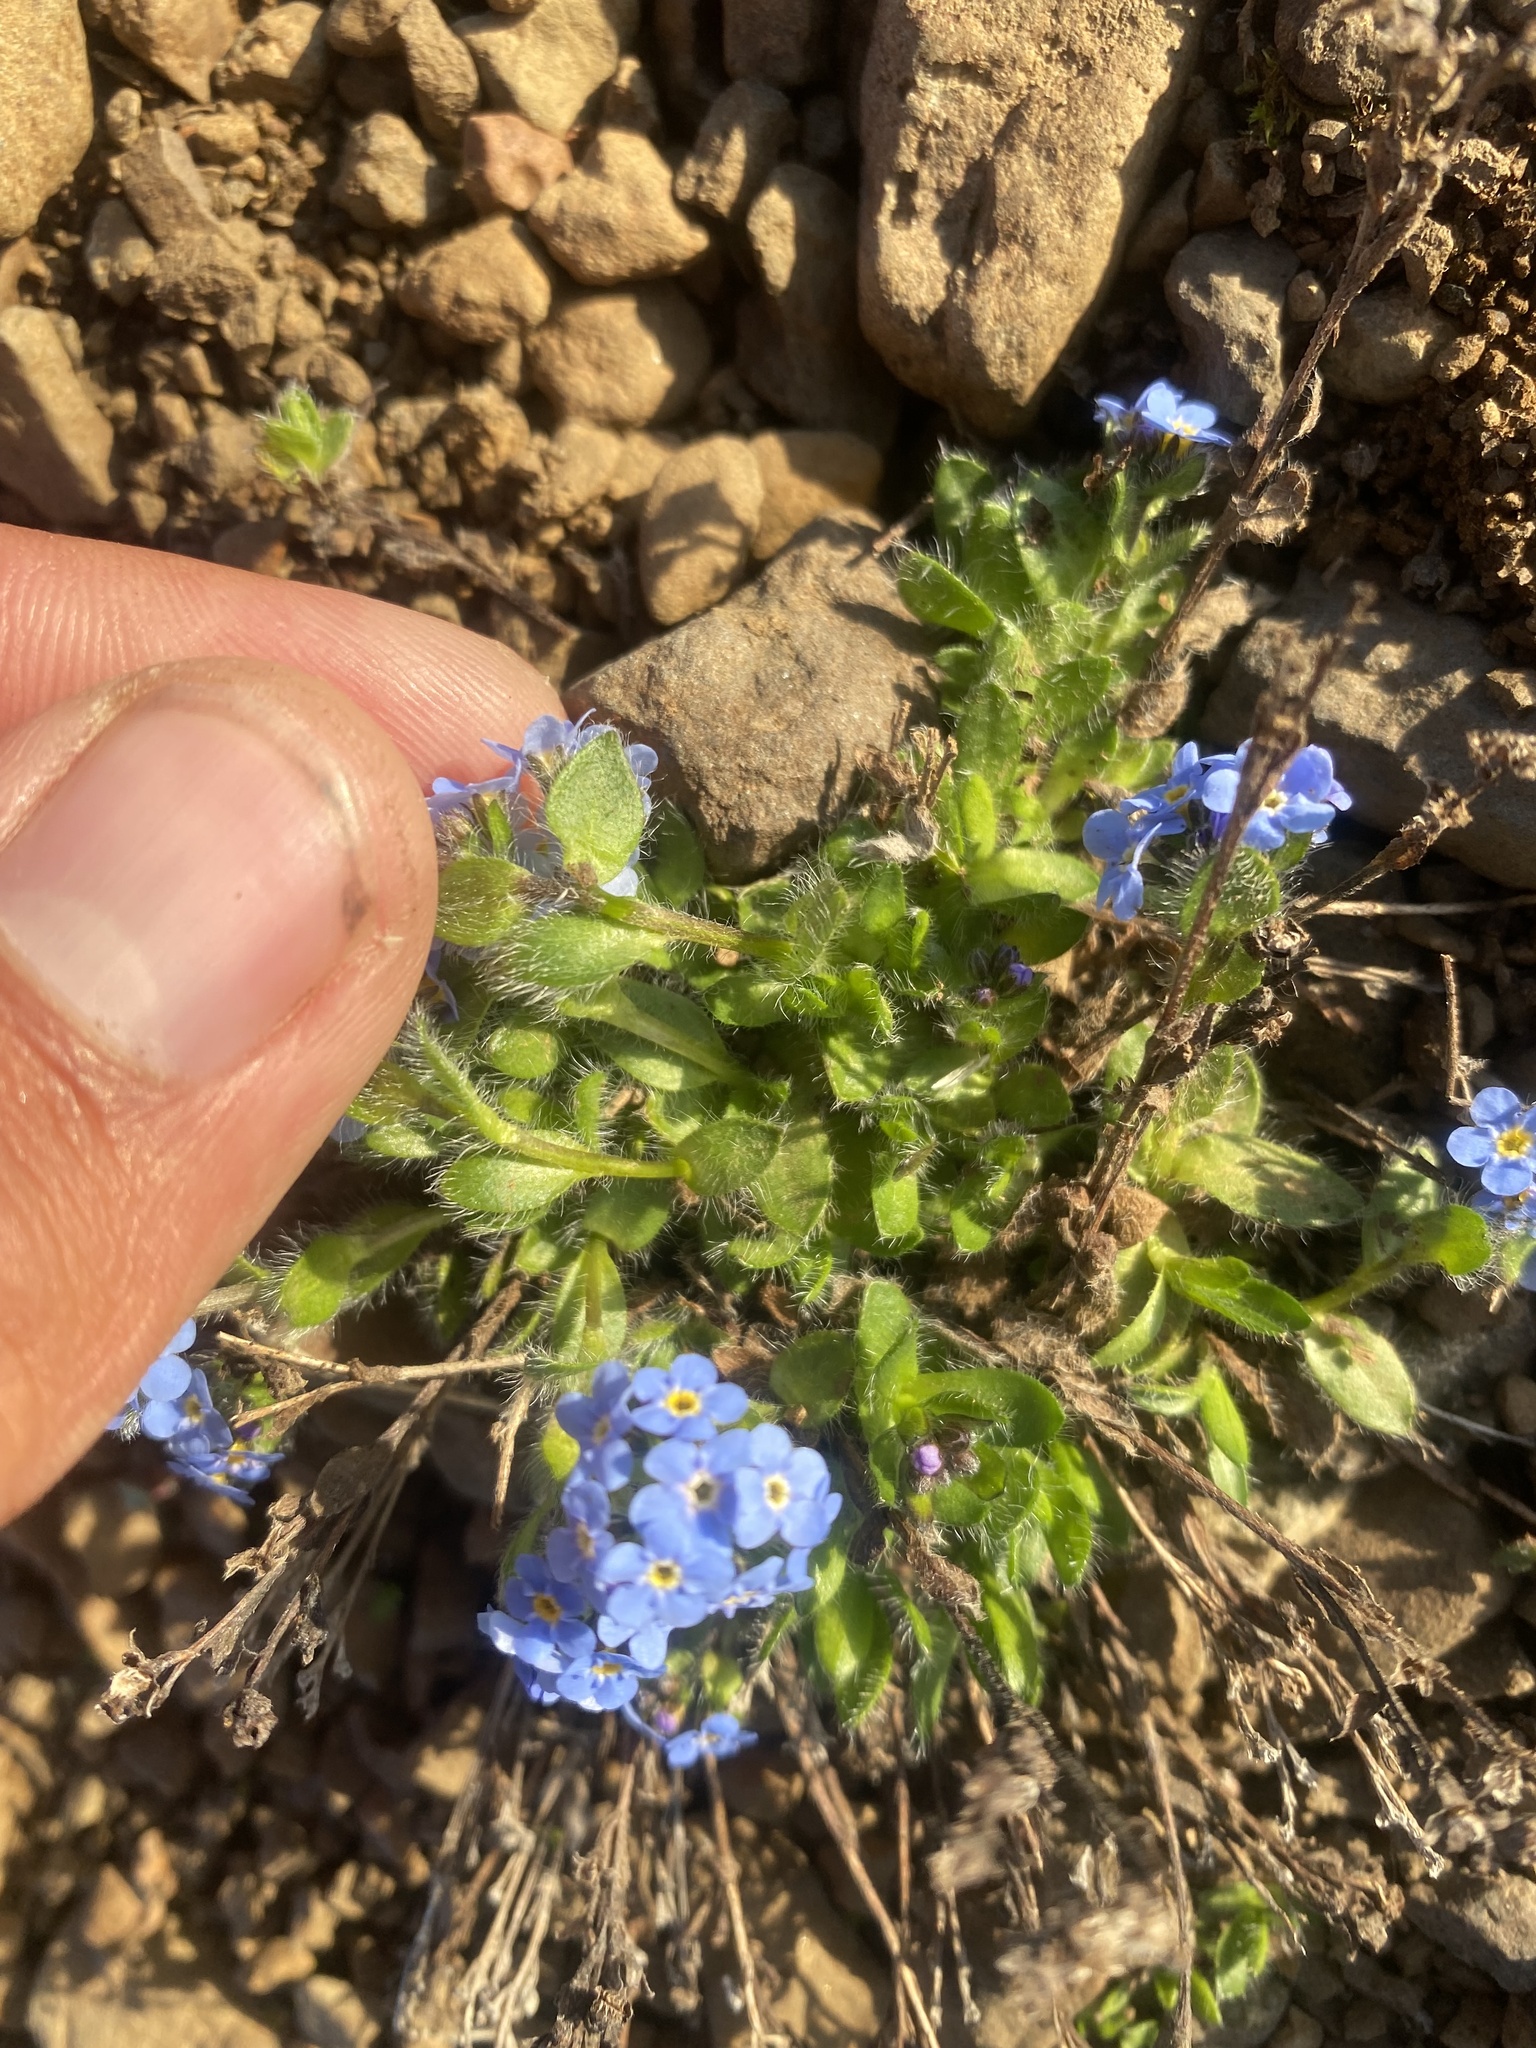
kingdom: Plantae
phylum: Tracheophyta
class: Magnoliopsida
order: Boraginales
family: Boraginaceae
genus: Eritrichium
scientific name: Eritrichium villosum
